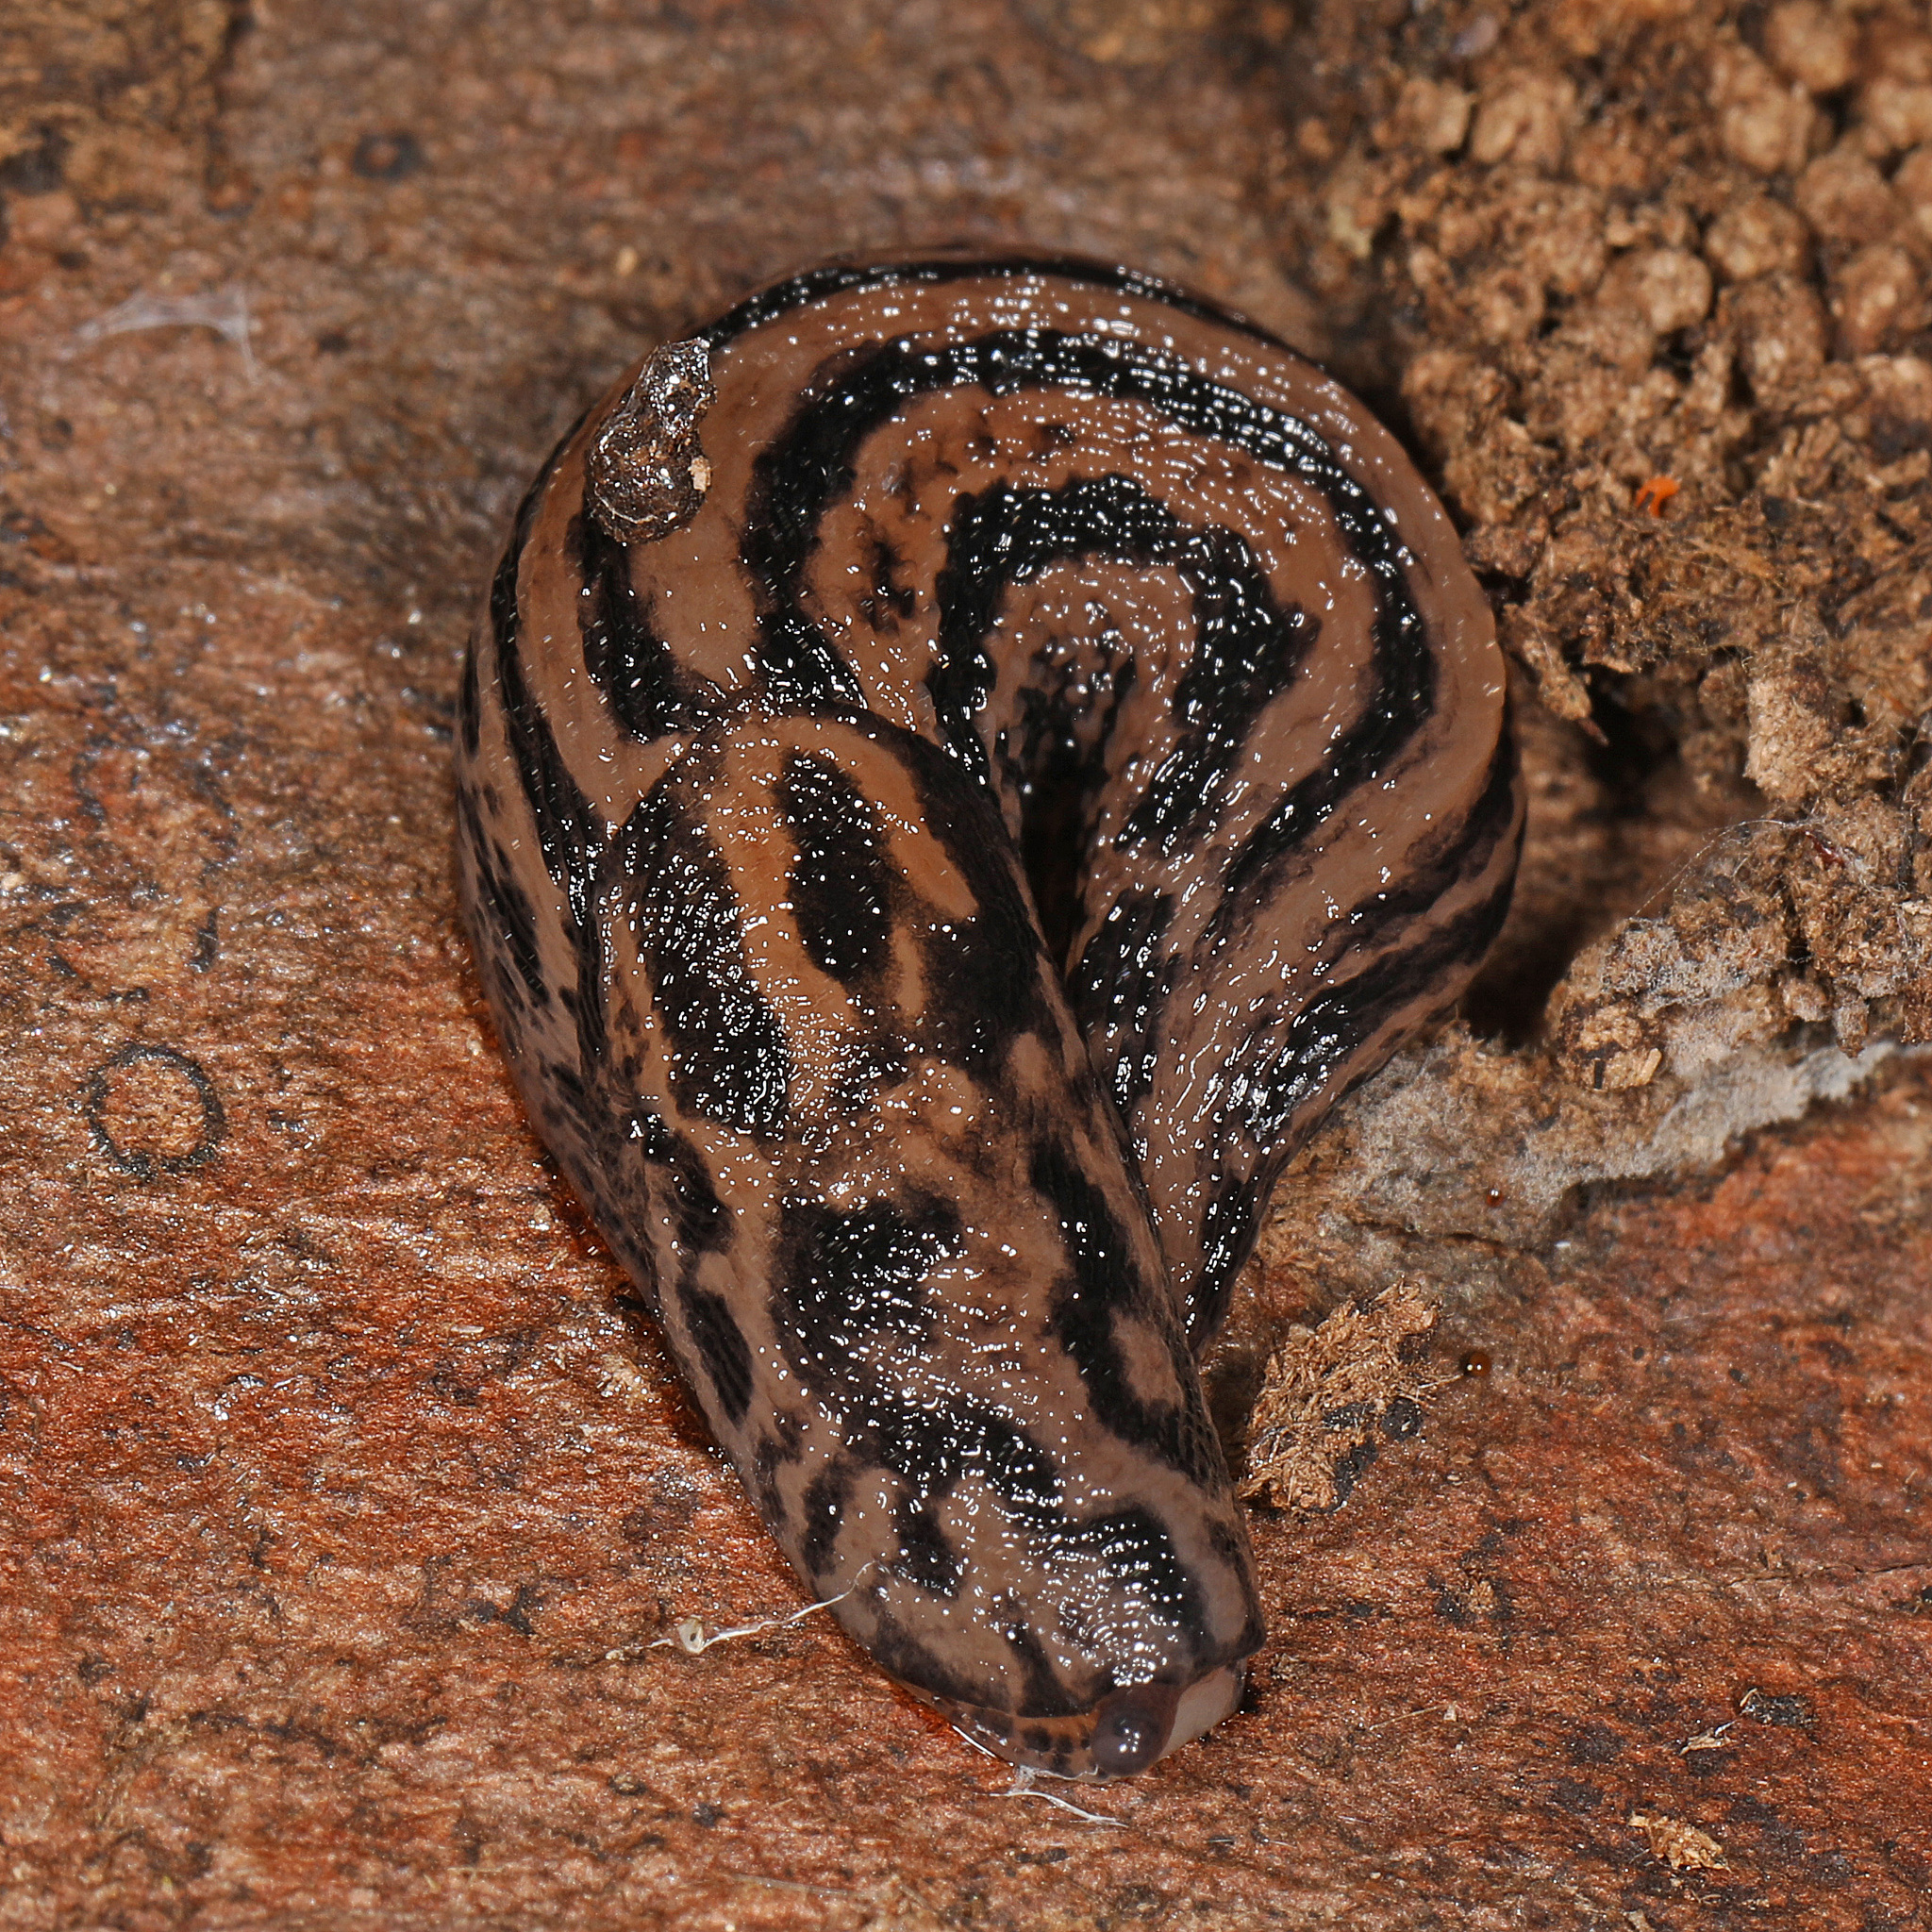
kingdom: Animalia
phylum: Mollusca
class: Gastropoda
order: Stylommatophora
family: Limacidae
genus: Limax
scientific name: Limax maximus
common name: Great grey slug
